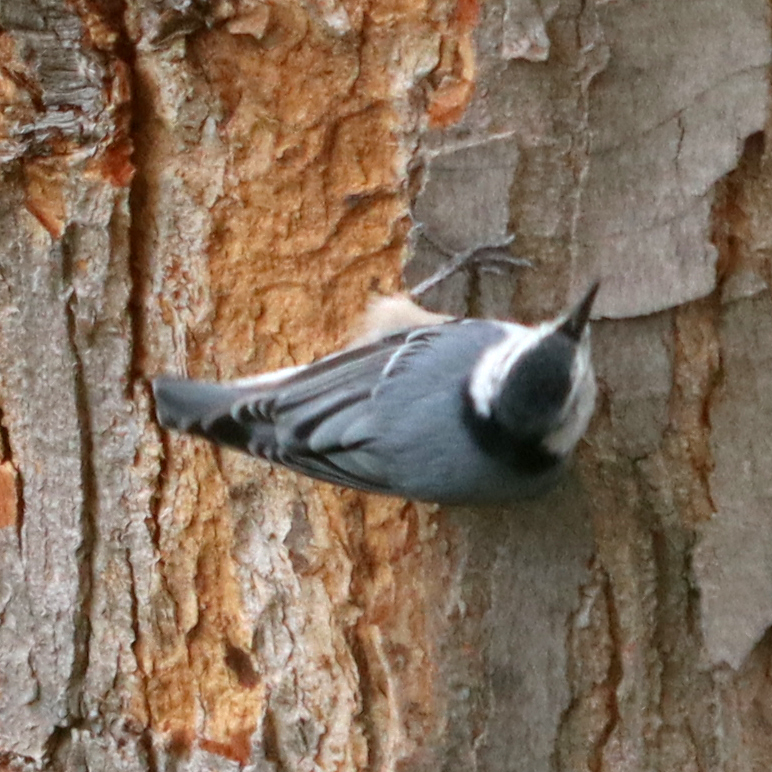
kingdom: Animalia
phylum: Chordata
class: Aves
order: Passeriformes
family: Sittidae
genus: Sitta
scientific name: Sitta carolinensis
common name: White-breasted nuthatch
